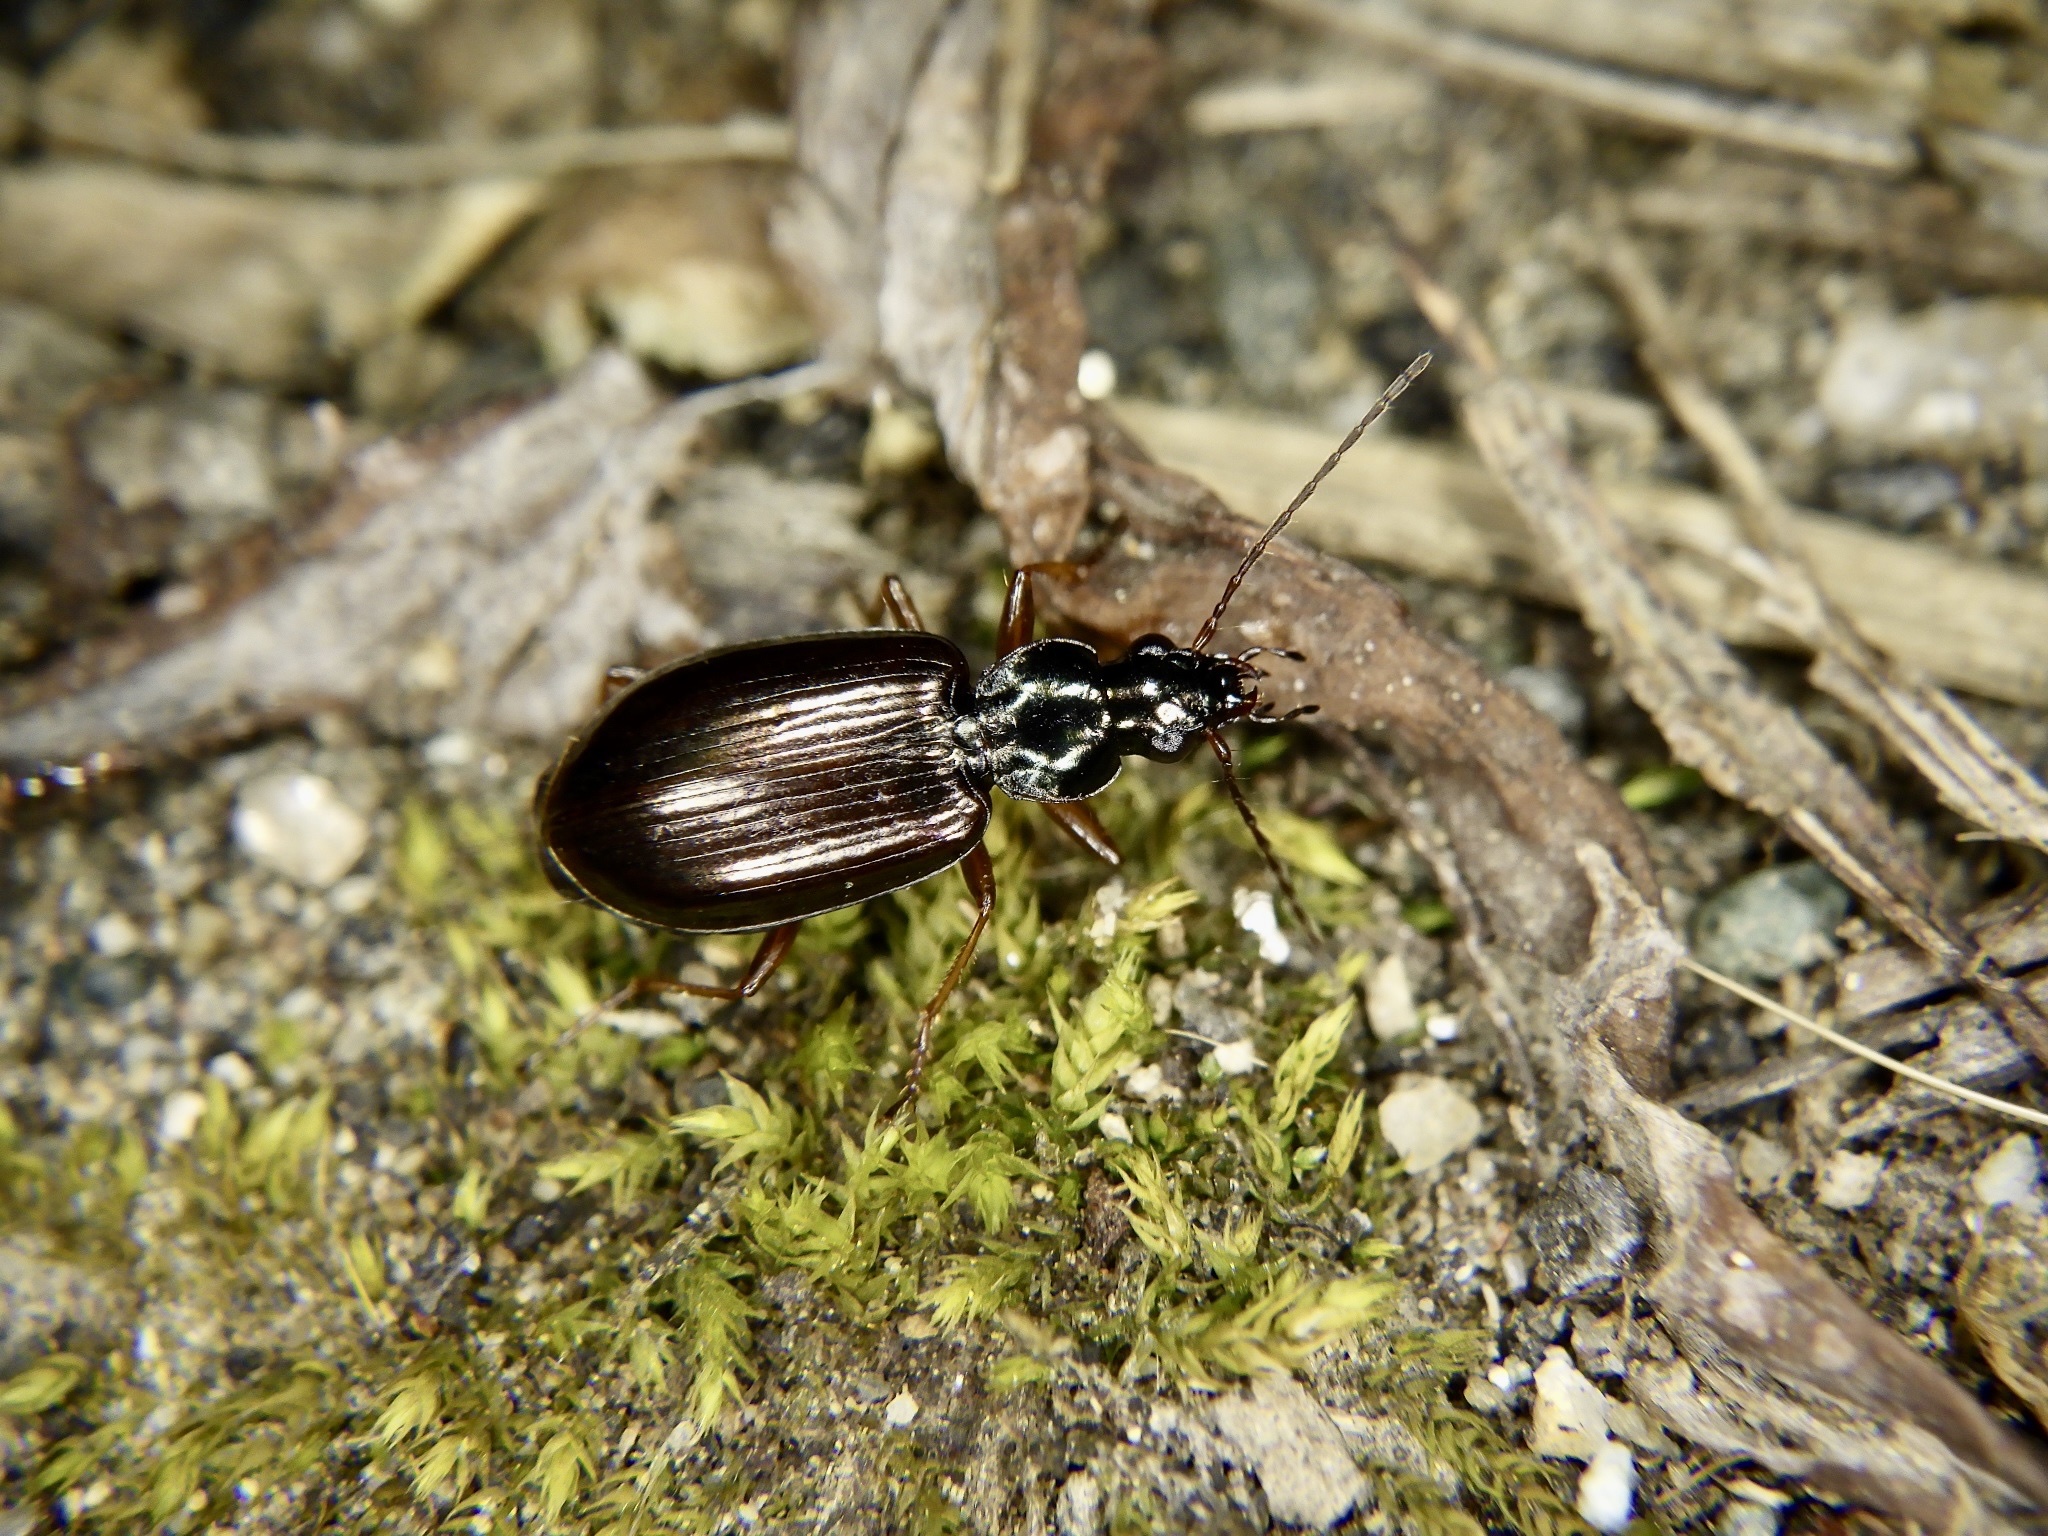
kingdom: Animalia
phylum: Arthropoda
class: Insecta
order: Coleoptera
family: Carabidae
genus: Agonum
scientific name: Agonum chalcomum
